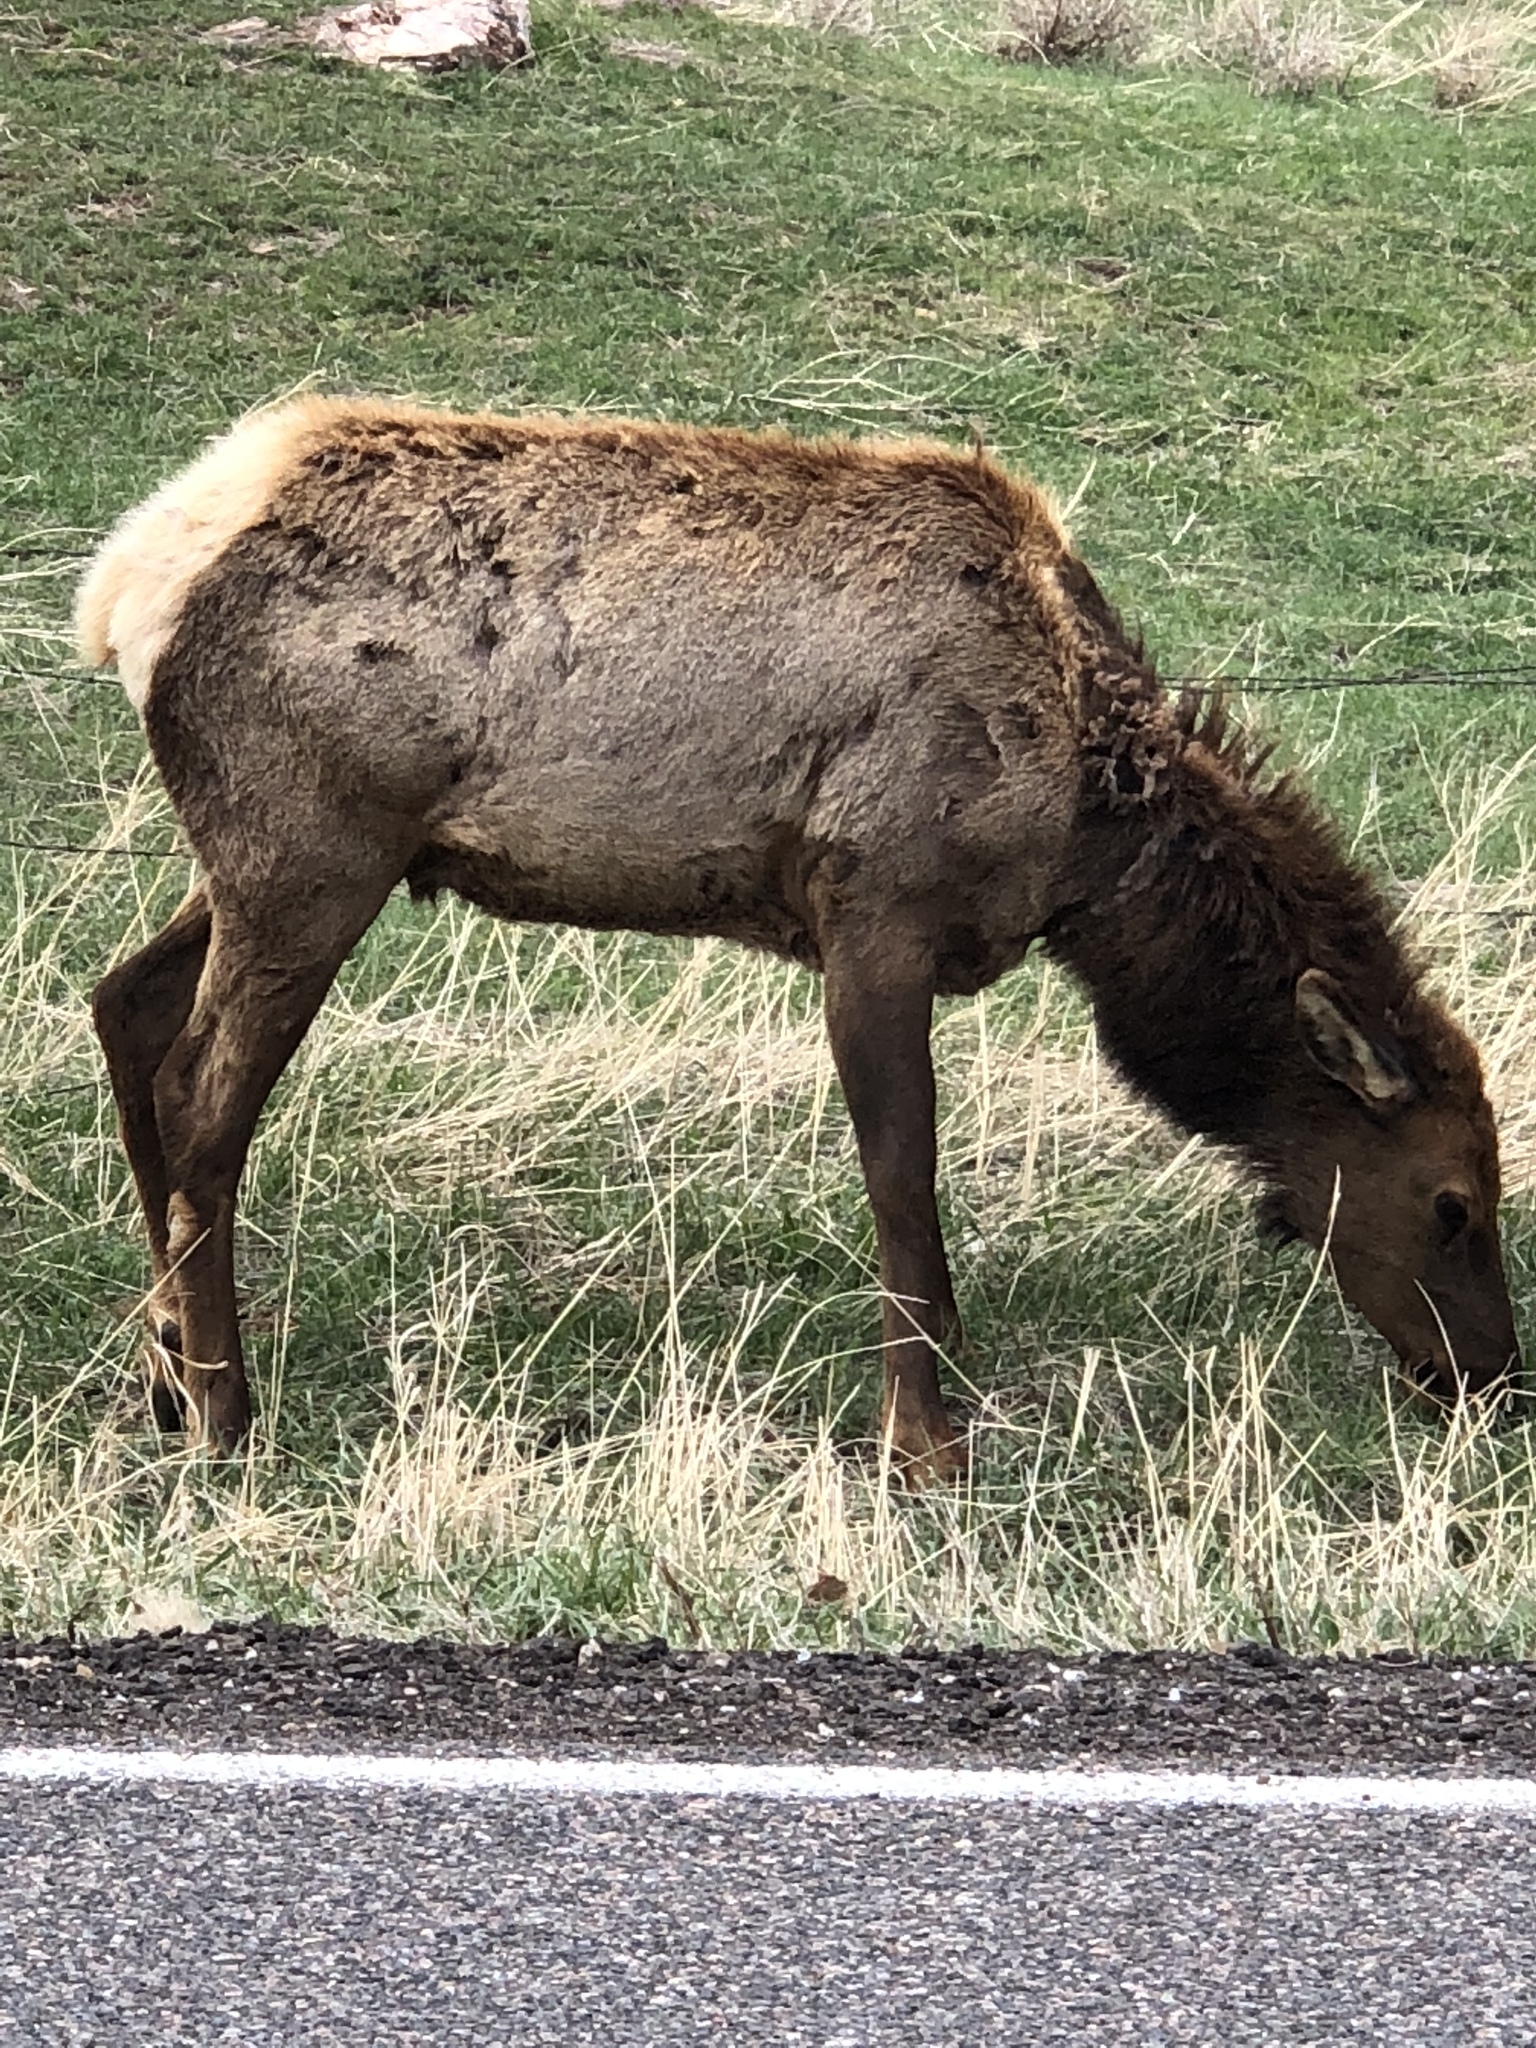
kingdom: Animalia
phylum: Chordata
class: Mammalia
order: Artiodactyla
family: Cervidae
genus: Cervus
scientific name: Cervus elaphus
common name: Red deer
